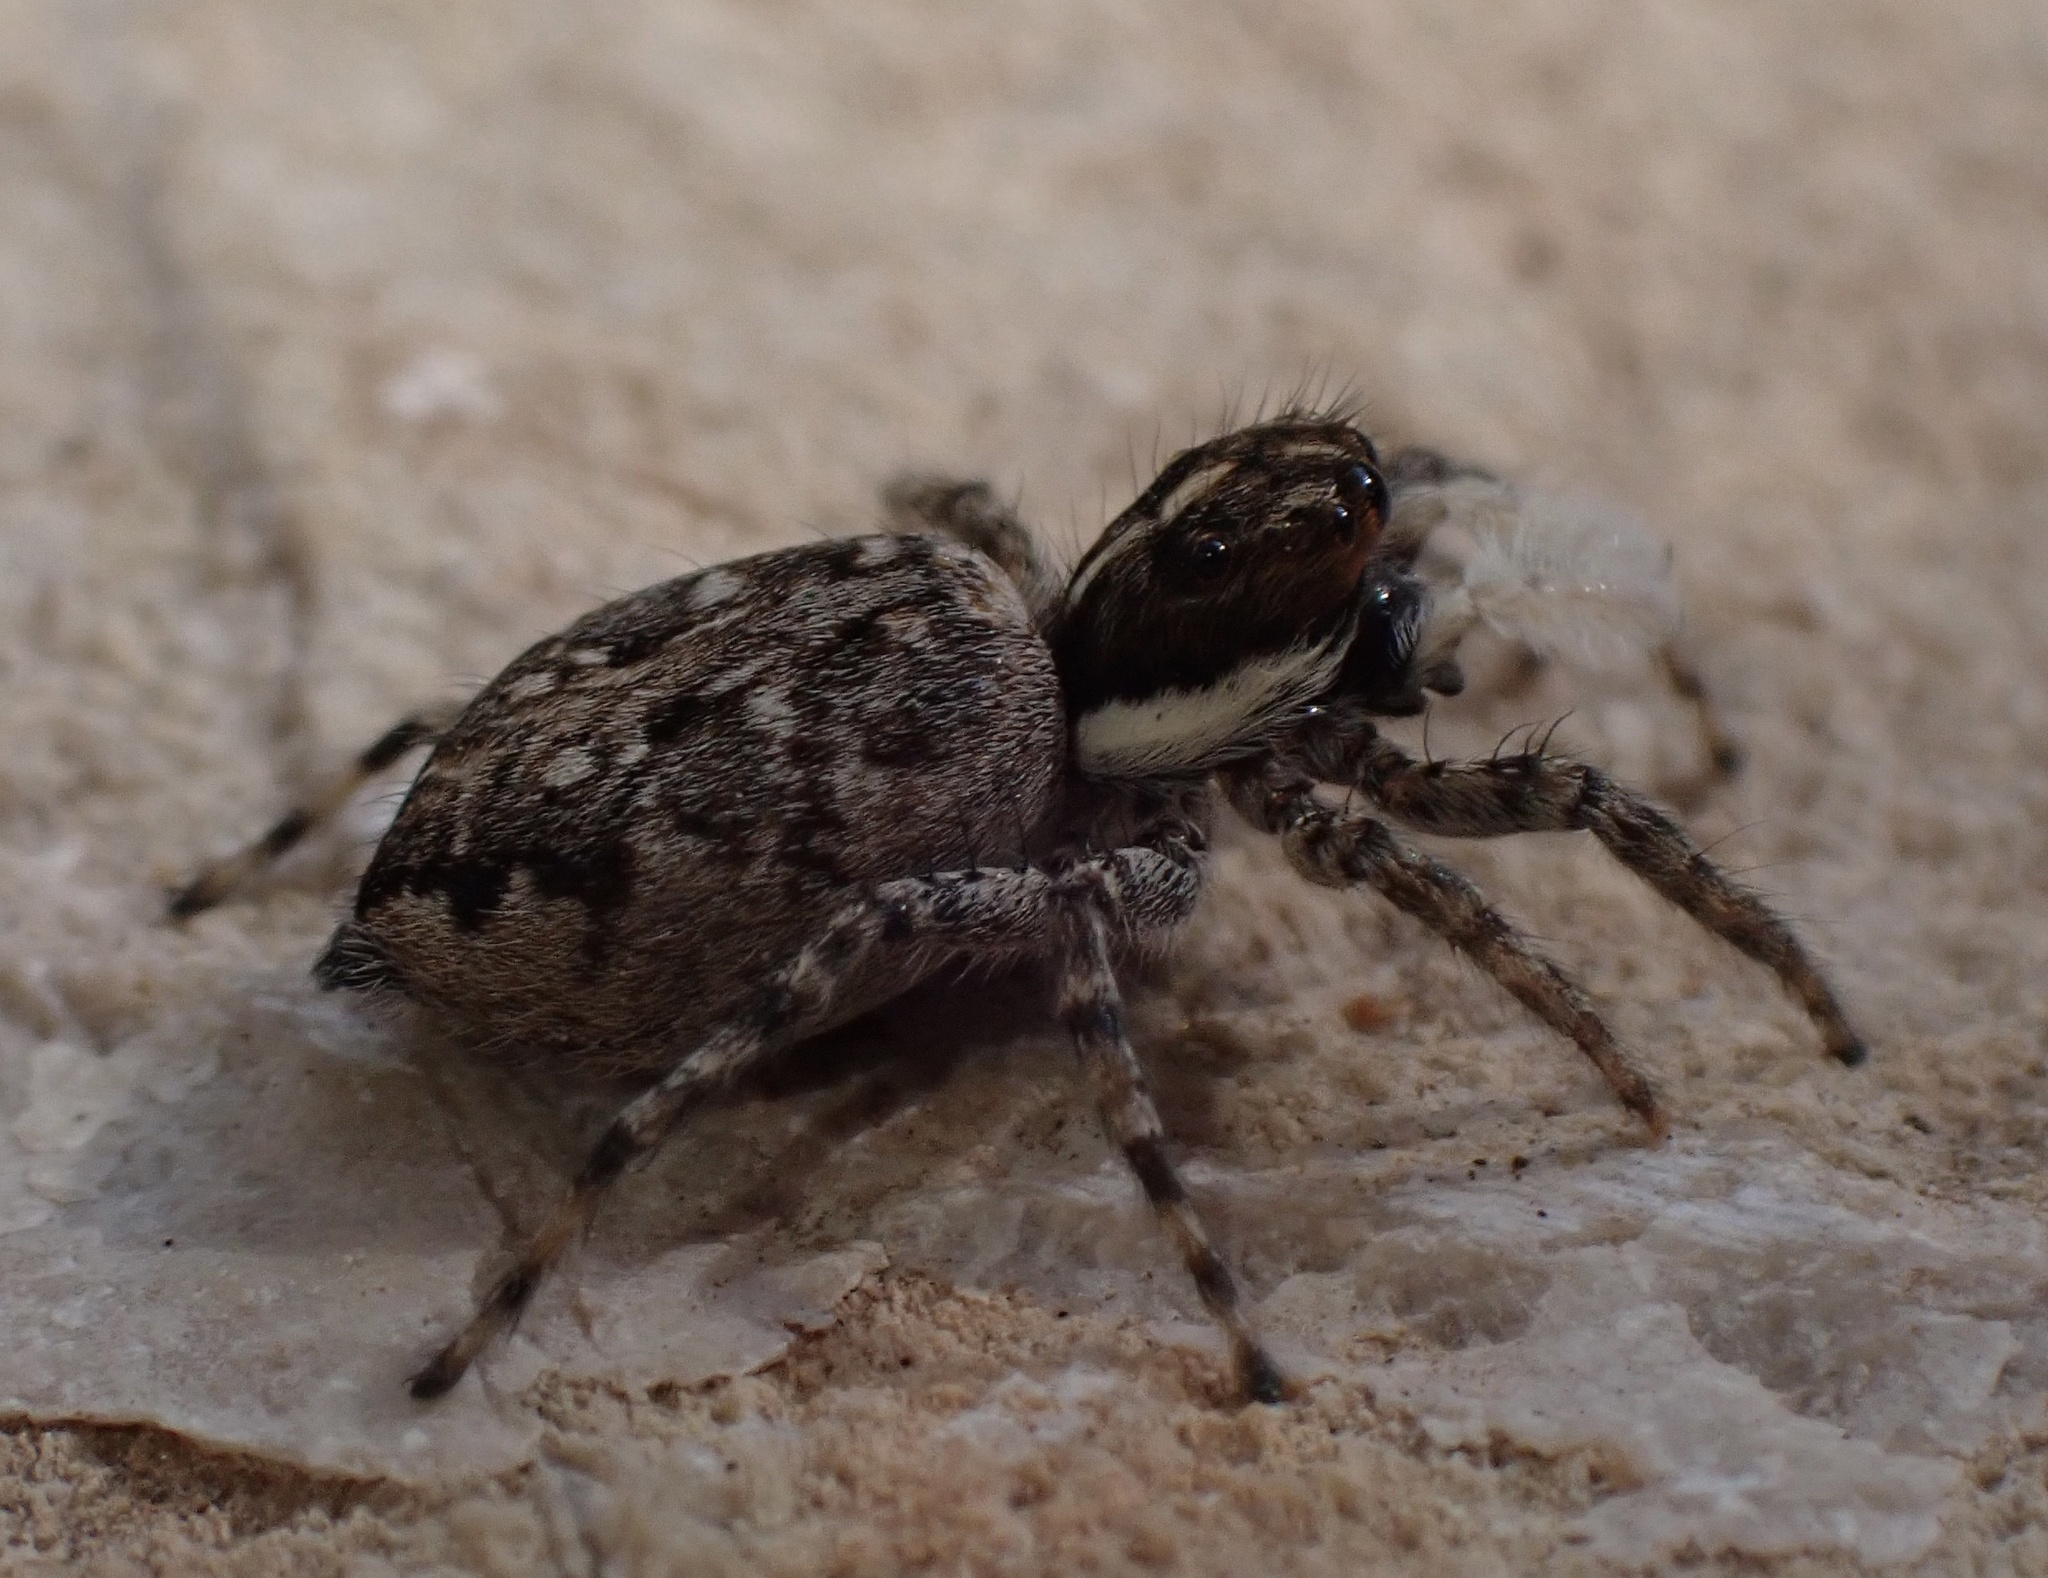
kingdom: Animalia
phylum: Arthropoda
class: Arachnida
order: Araneae
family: Salticidae
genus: Menemerus
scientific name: Menemerus semilimbatus
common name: Jumping spider
